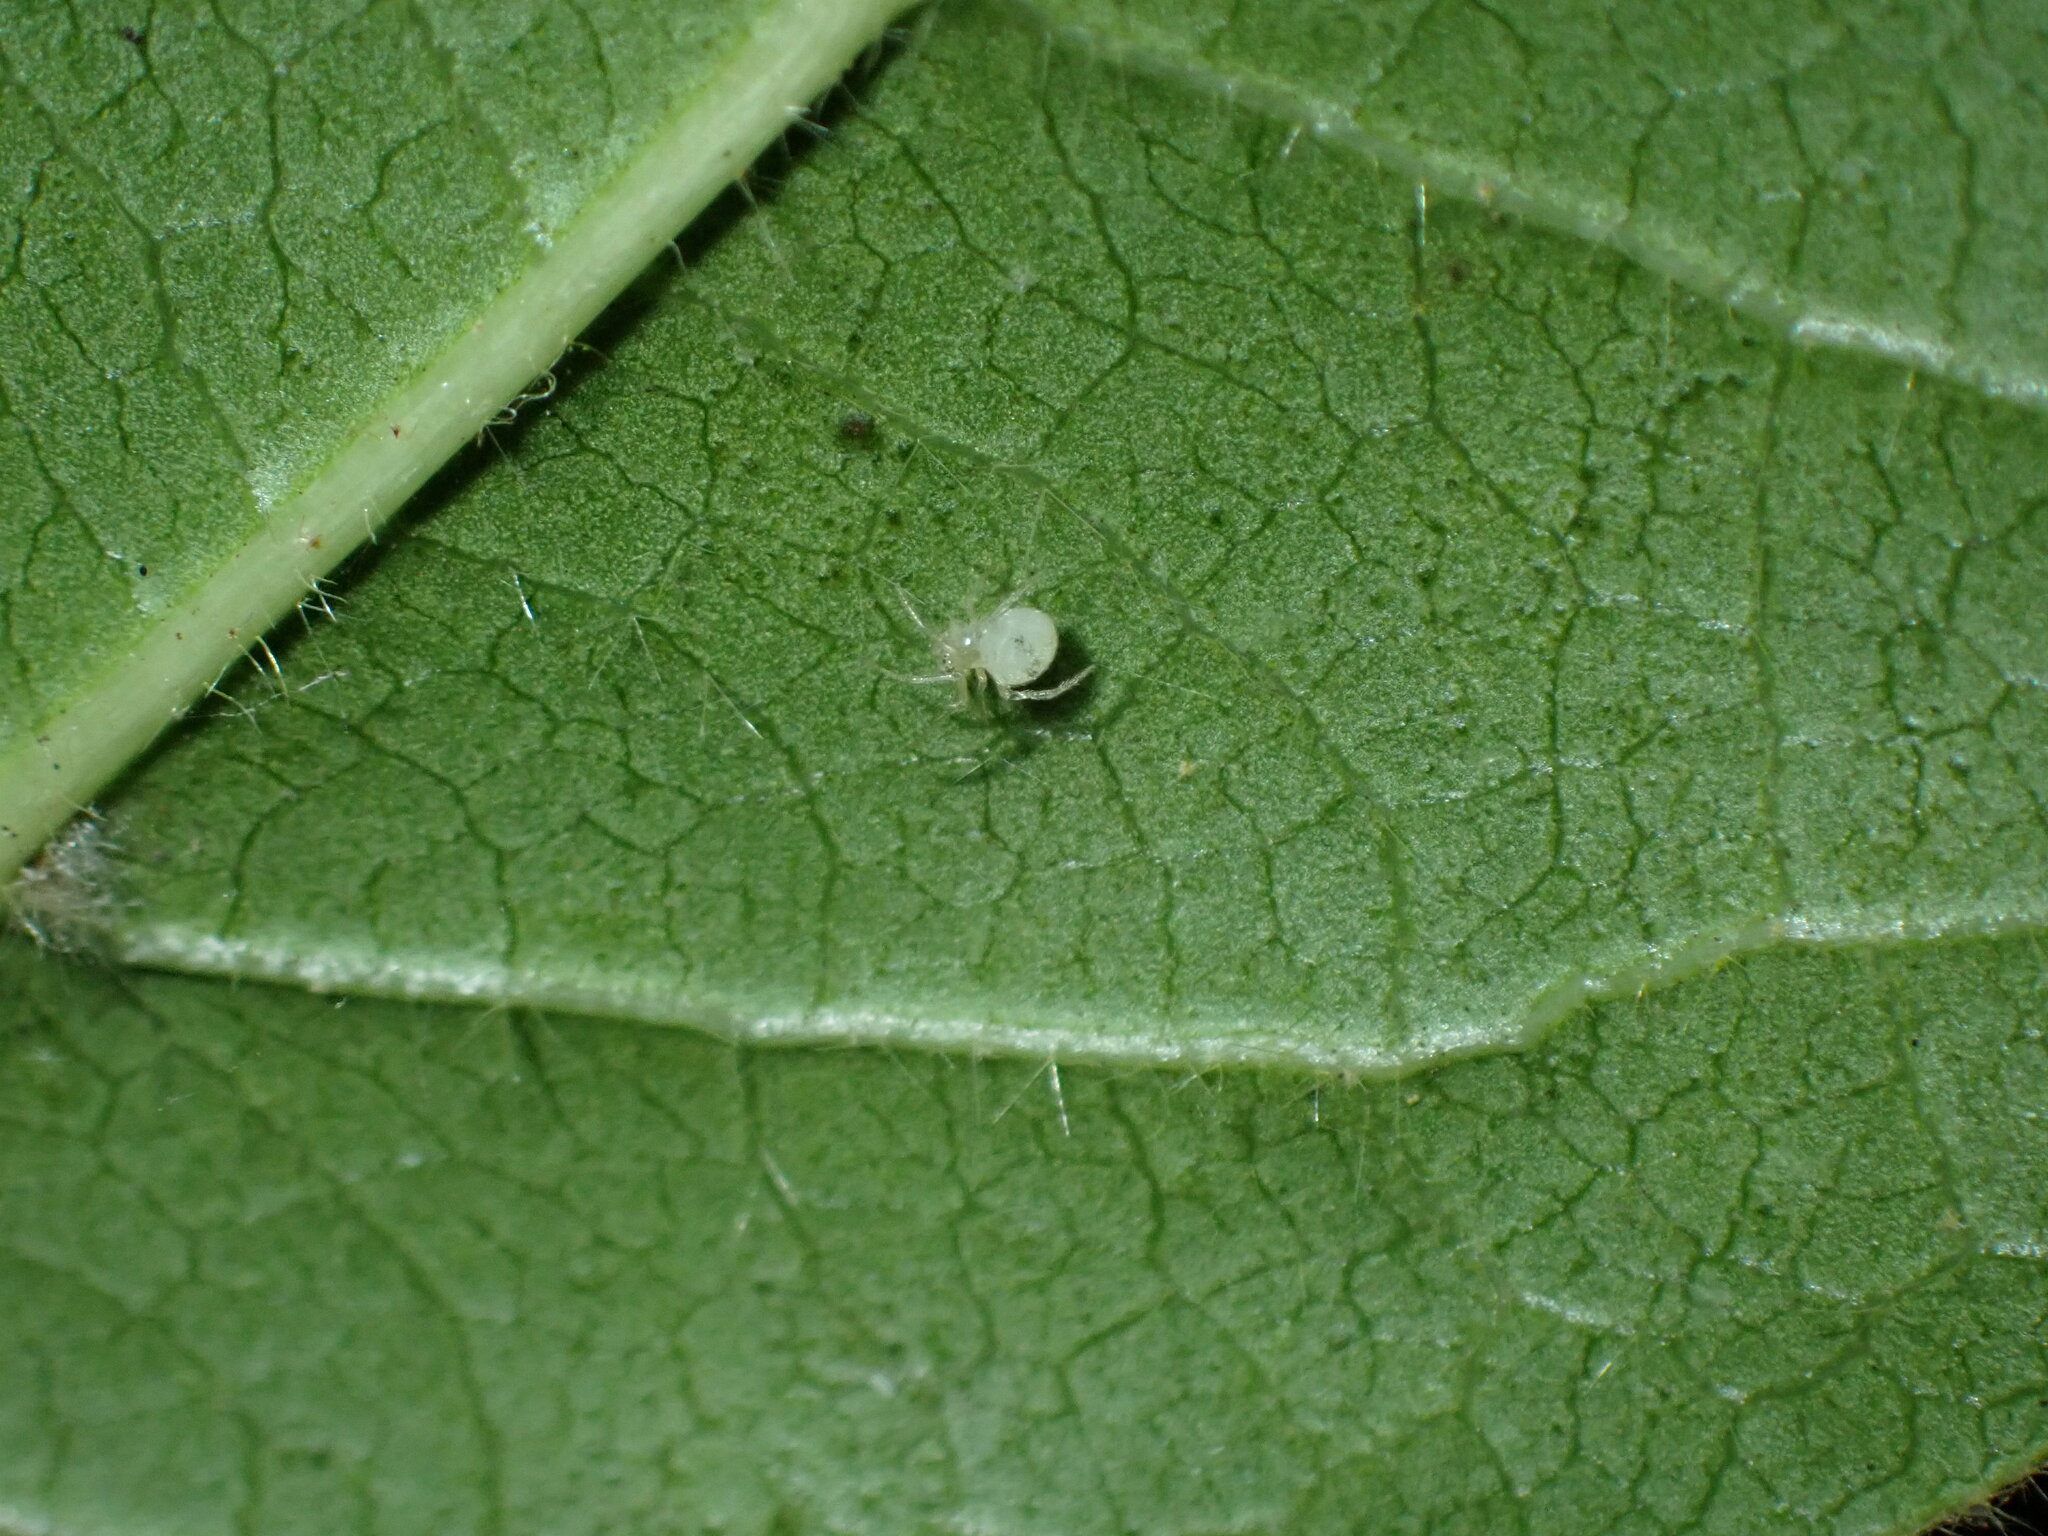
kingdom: Animalia
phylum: Arthropoda
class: Arachnida
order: Araneae
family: Theridiidae
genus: Paidiscura
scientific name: Paidiscura pallens
